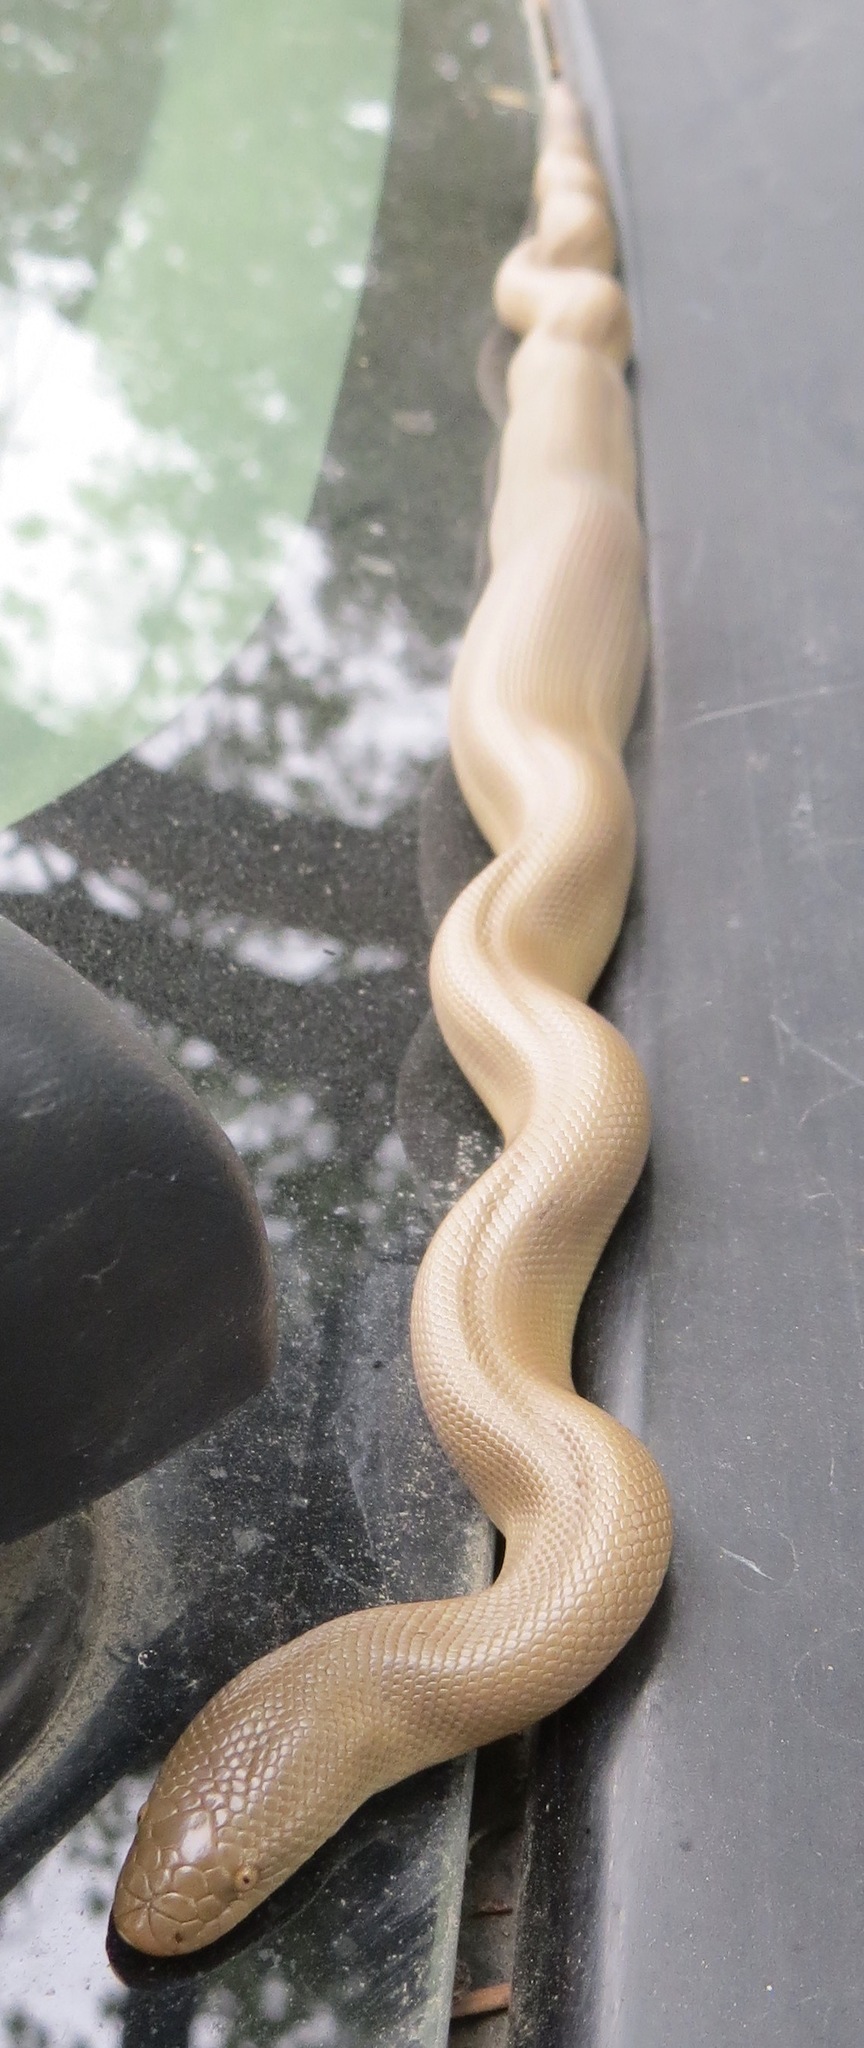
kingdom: Animalia
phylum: Chordata
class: Squamata
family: Boidae
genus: Charina
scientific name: Charina bottae
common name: Northern rubber boa
